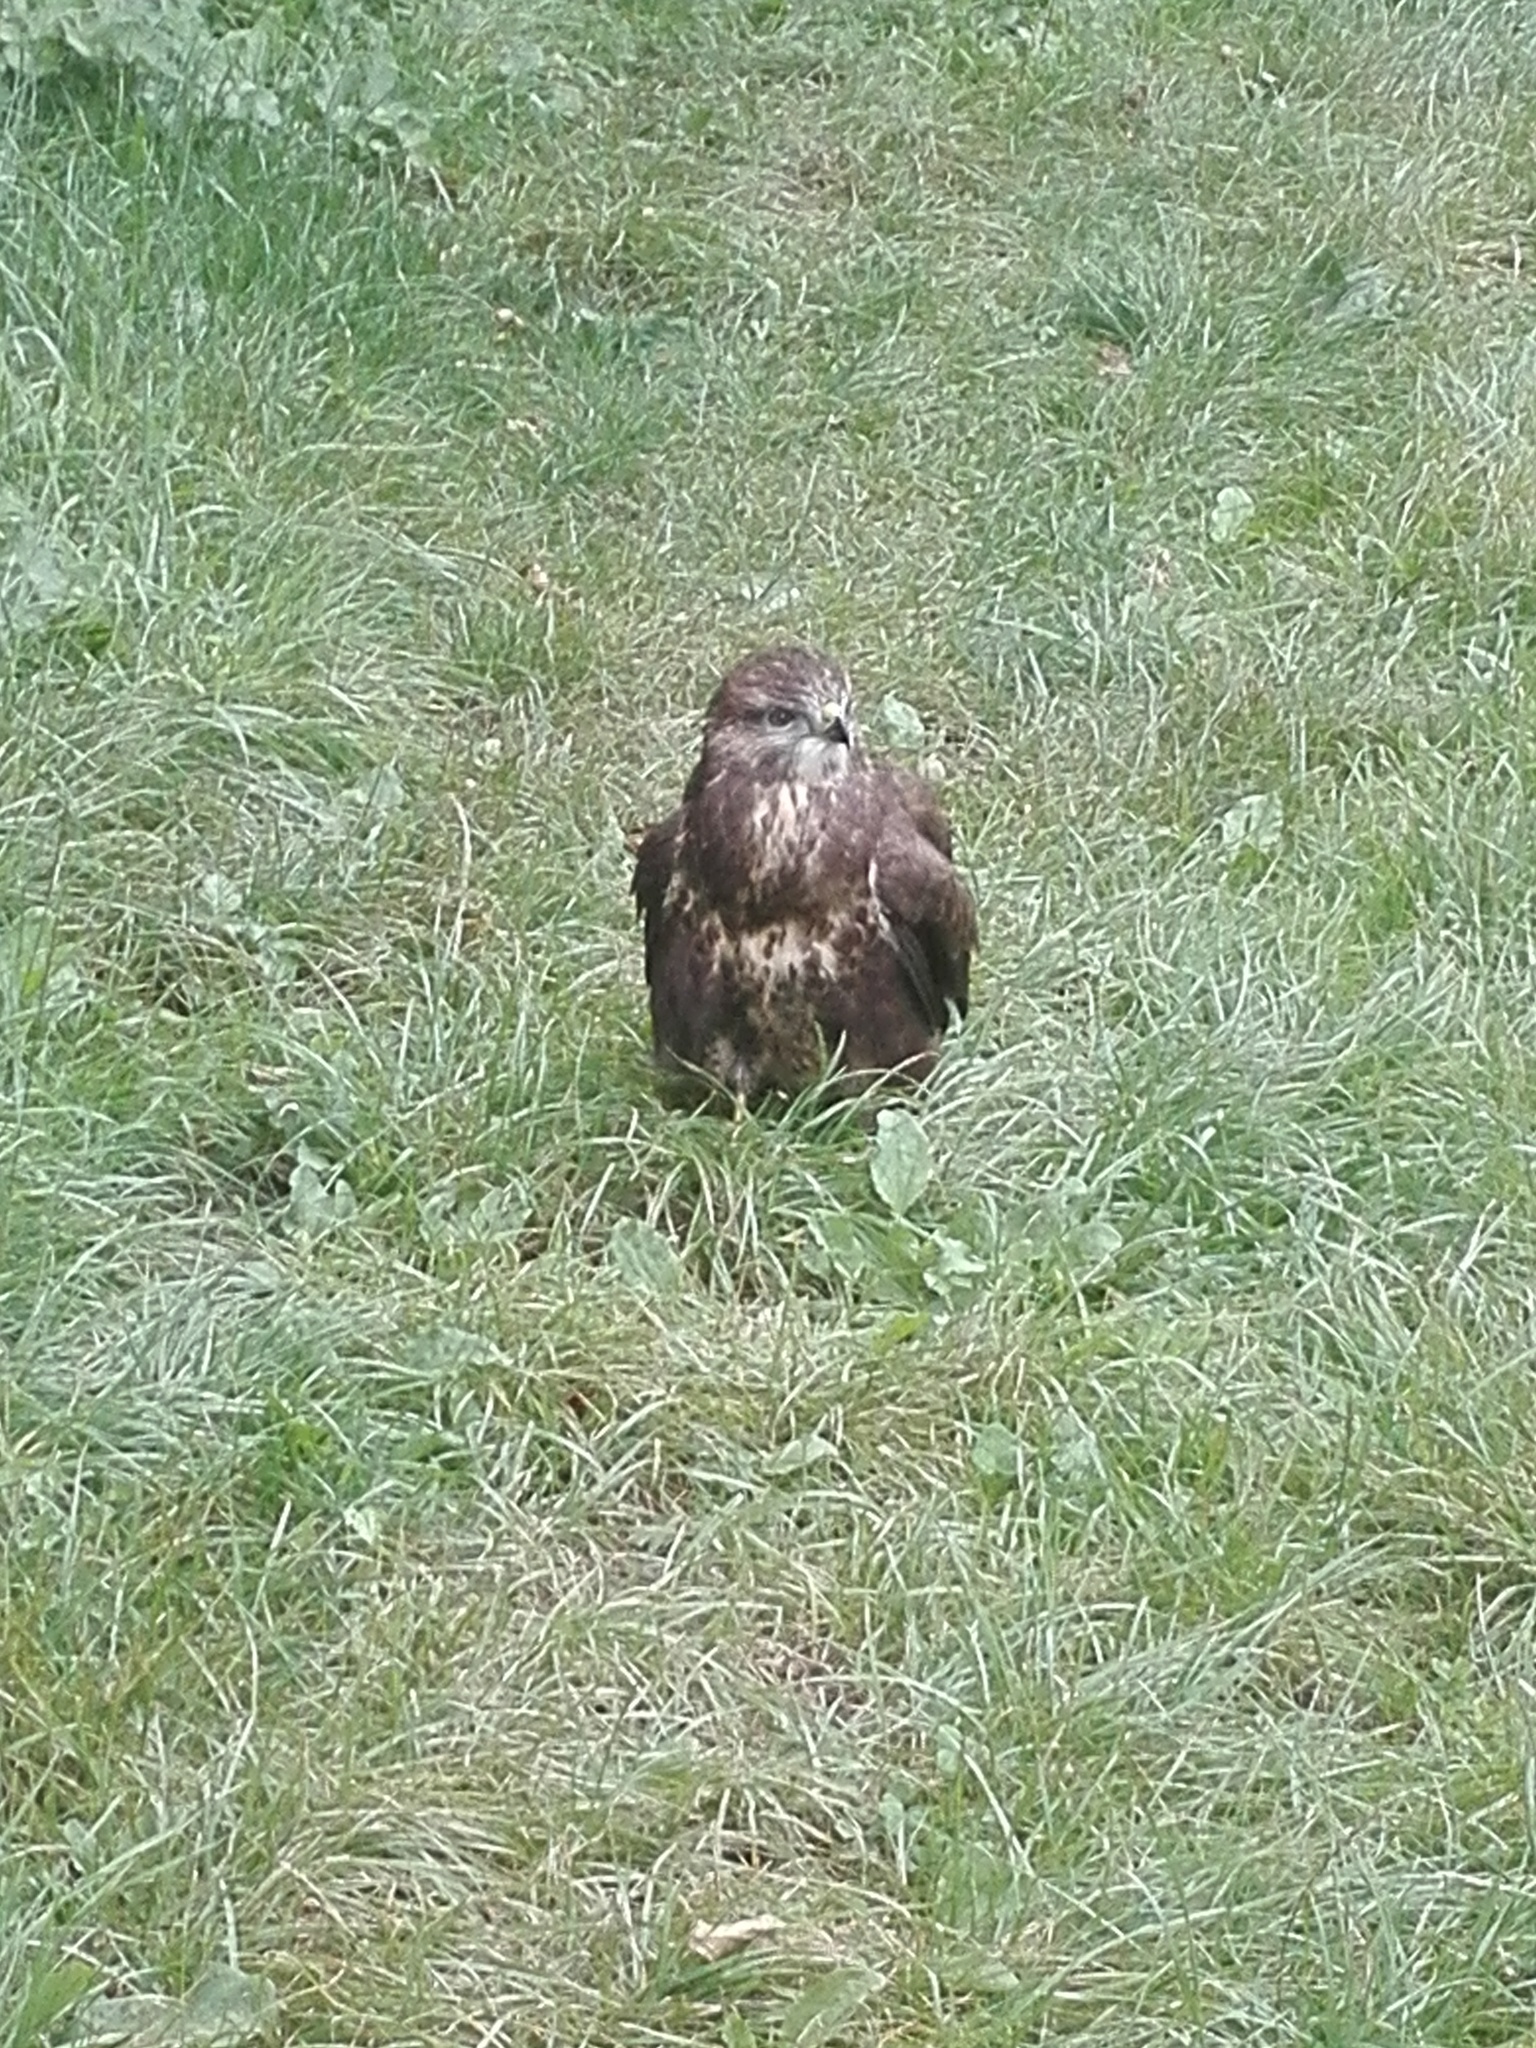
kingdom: Animalia
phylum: Chordata
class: Aves
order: Accipitriformes
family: Accipitridae
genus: Buteo
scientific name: Buteo buteo
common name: Common buzzard
